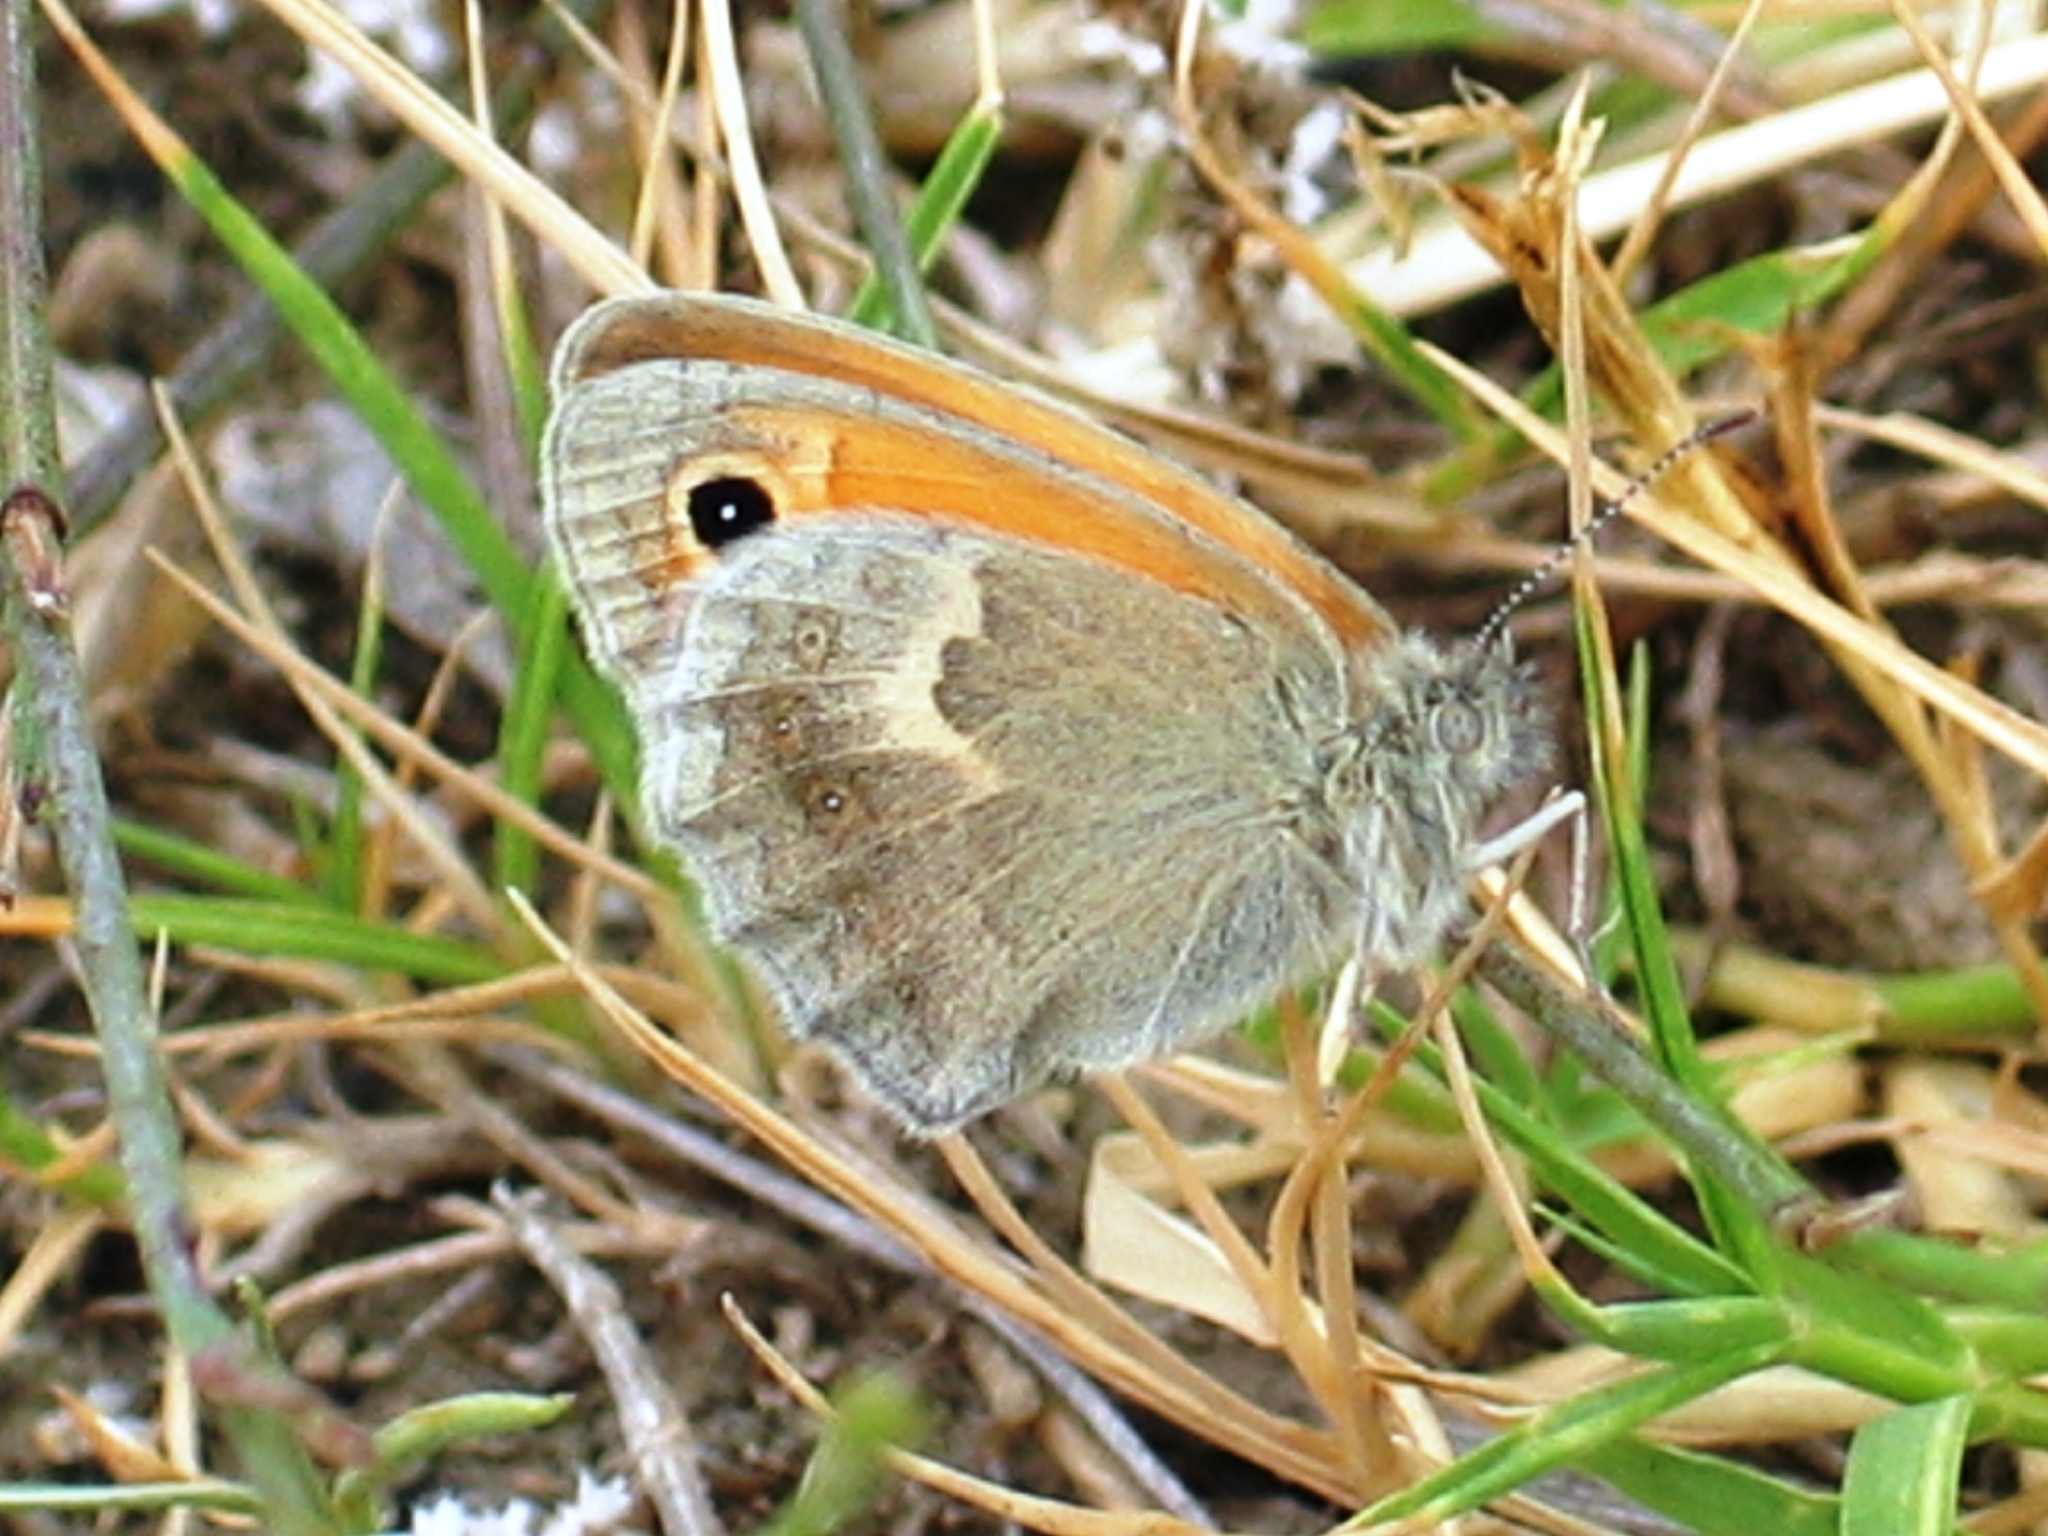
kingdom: Animalia
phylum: Arthropoda
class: Insecta
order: Lepidoptera
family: Nymphalidae
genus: Coenonympha
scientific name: Coenonympha pamphilus
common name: Small heath
